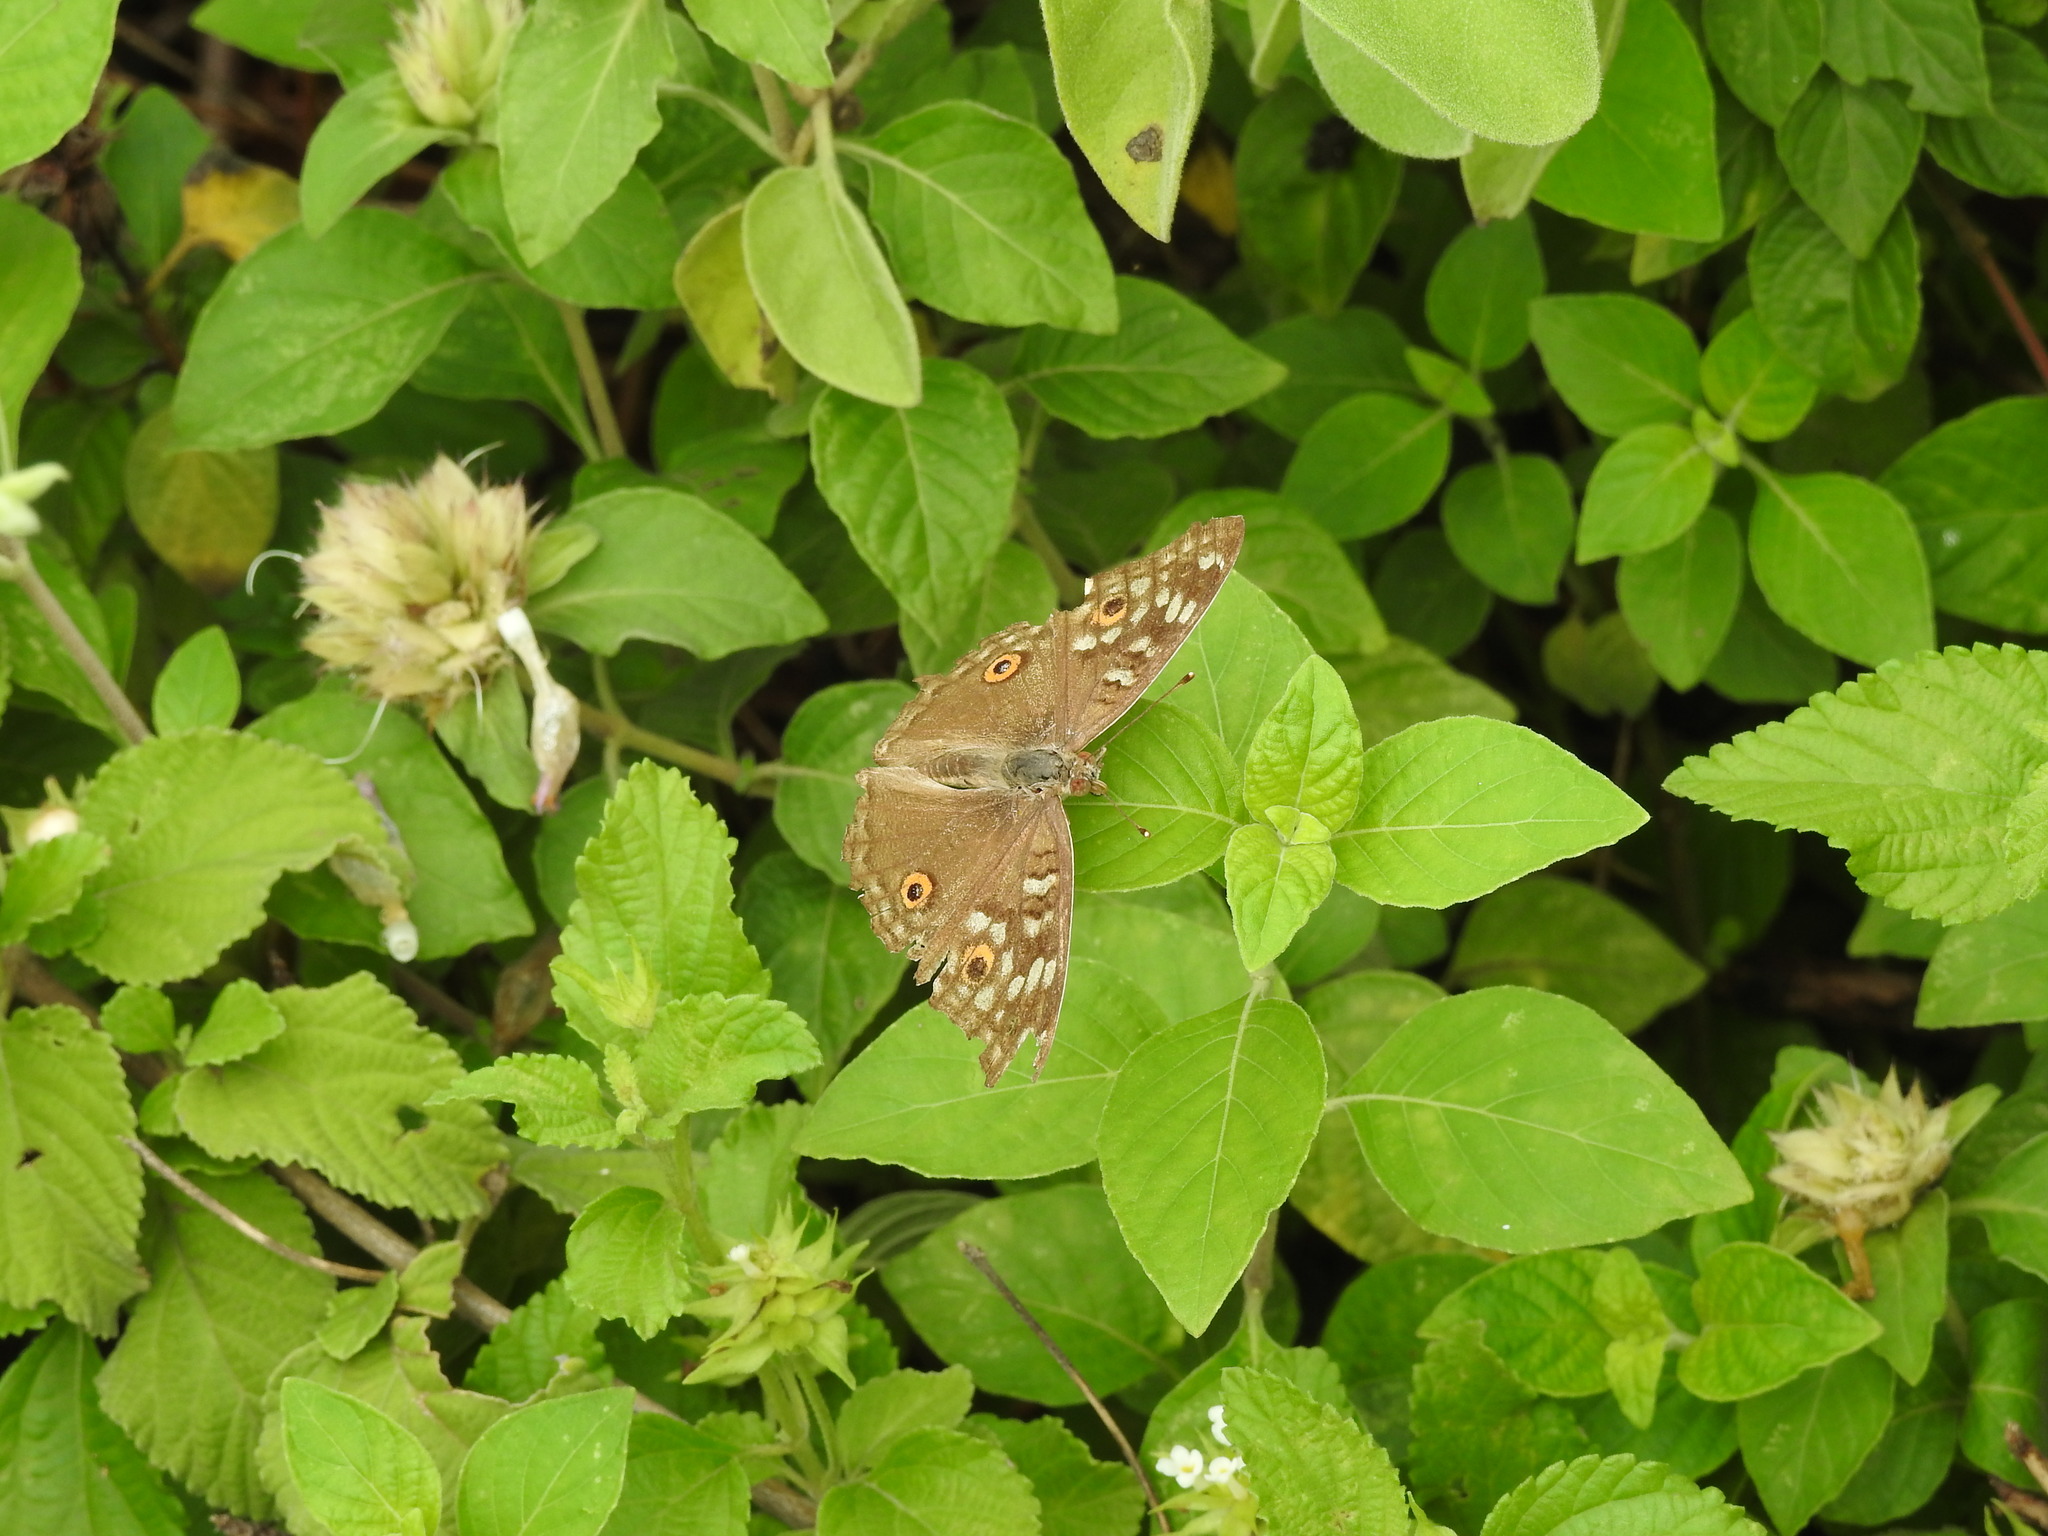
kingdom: Animalia
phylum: Arthropoda
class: Insecta
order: Lepidoptera
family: Nymphalidae
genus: Junonia
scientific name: Junonia lemonias
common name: Lemon pansy
